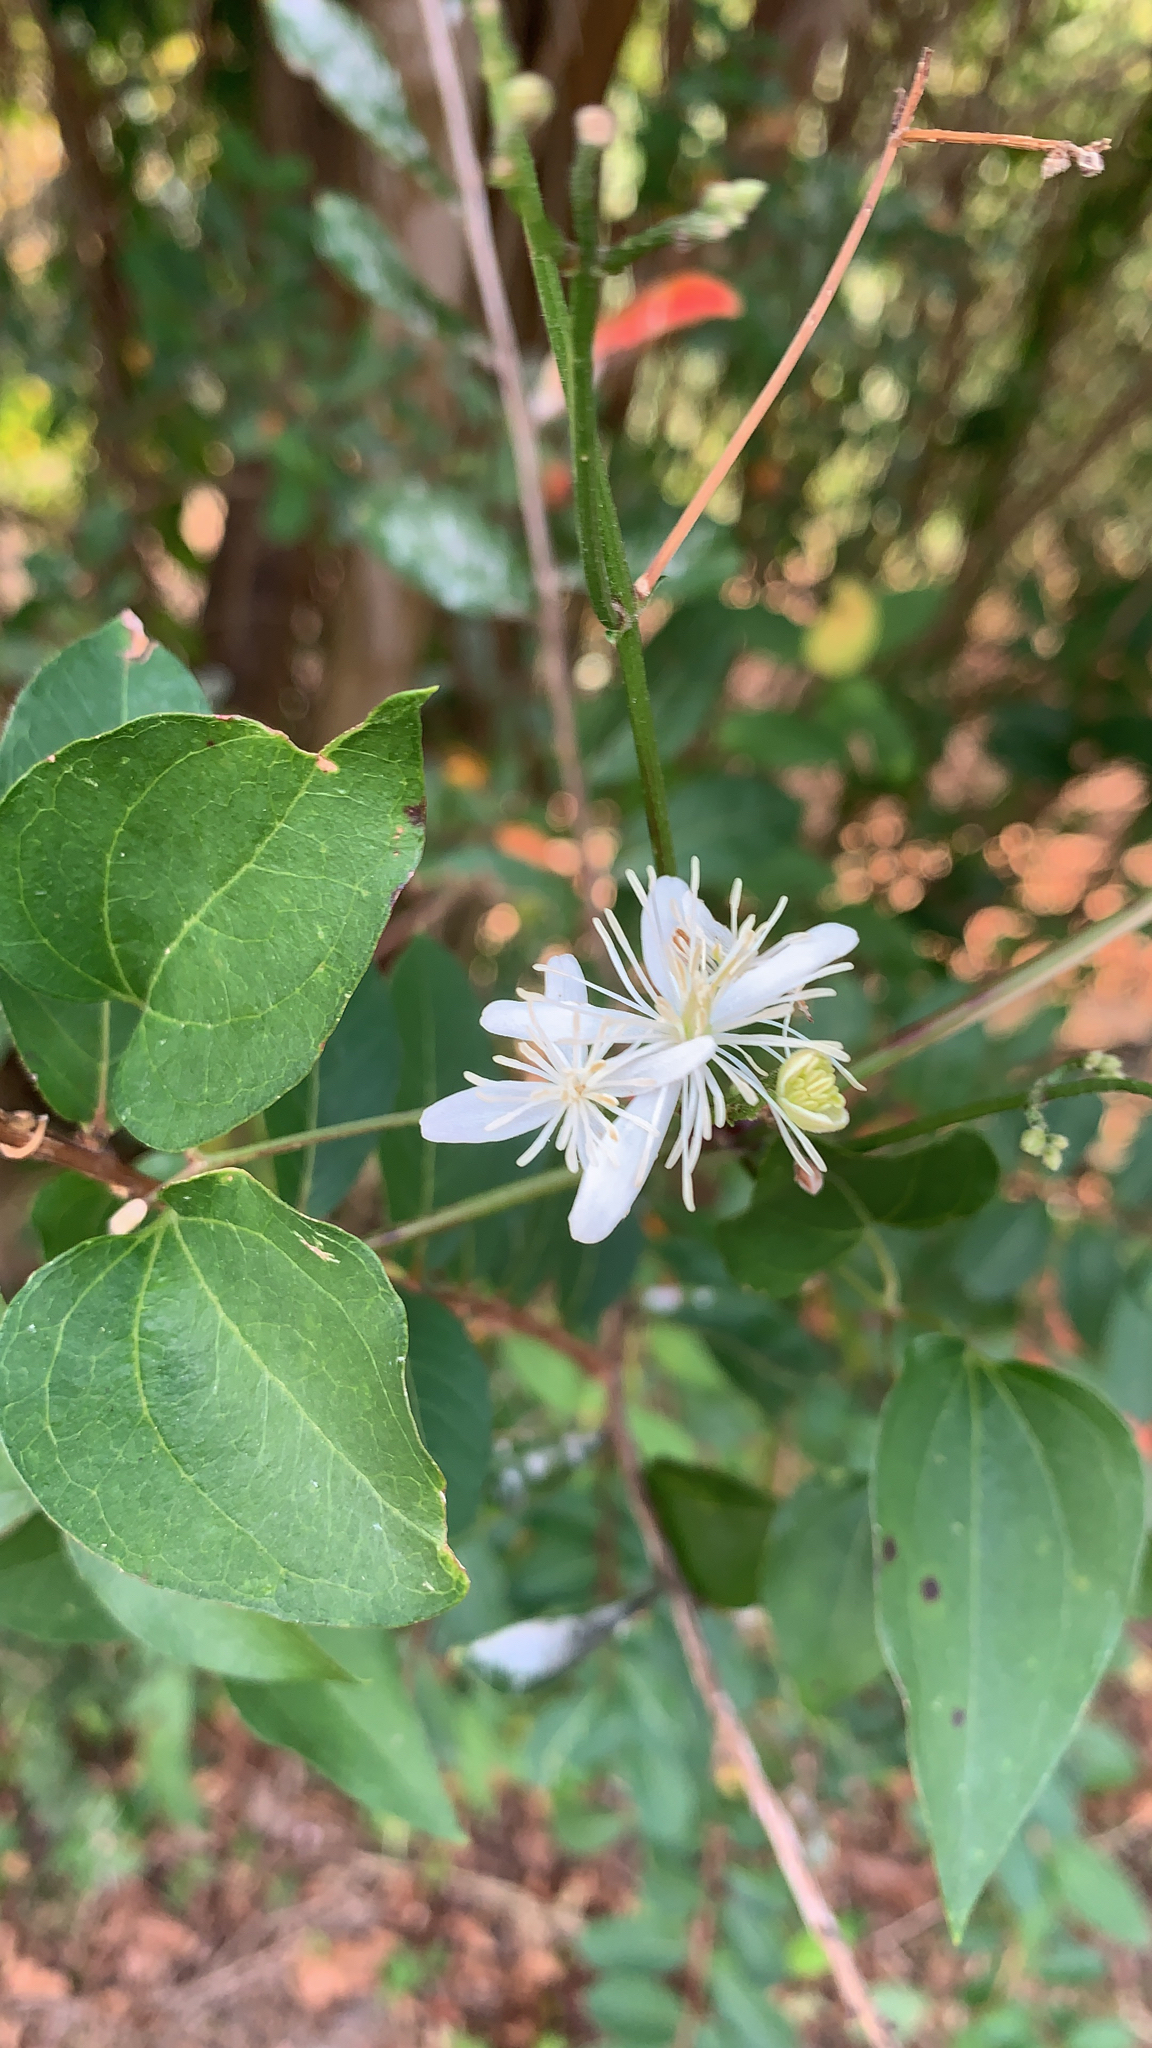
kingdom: Plantae
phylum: Tracheophyta
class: Magnoliopsida
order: Ranunculales
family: Ranunculaceae
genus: Clematis
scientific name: Clematis terniflora
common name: Sweet autumn clematis
